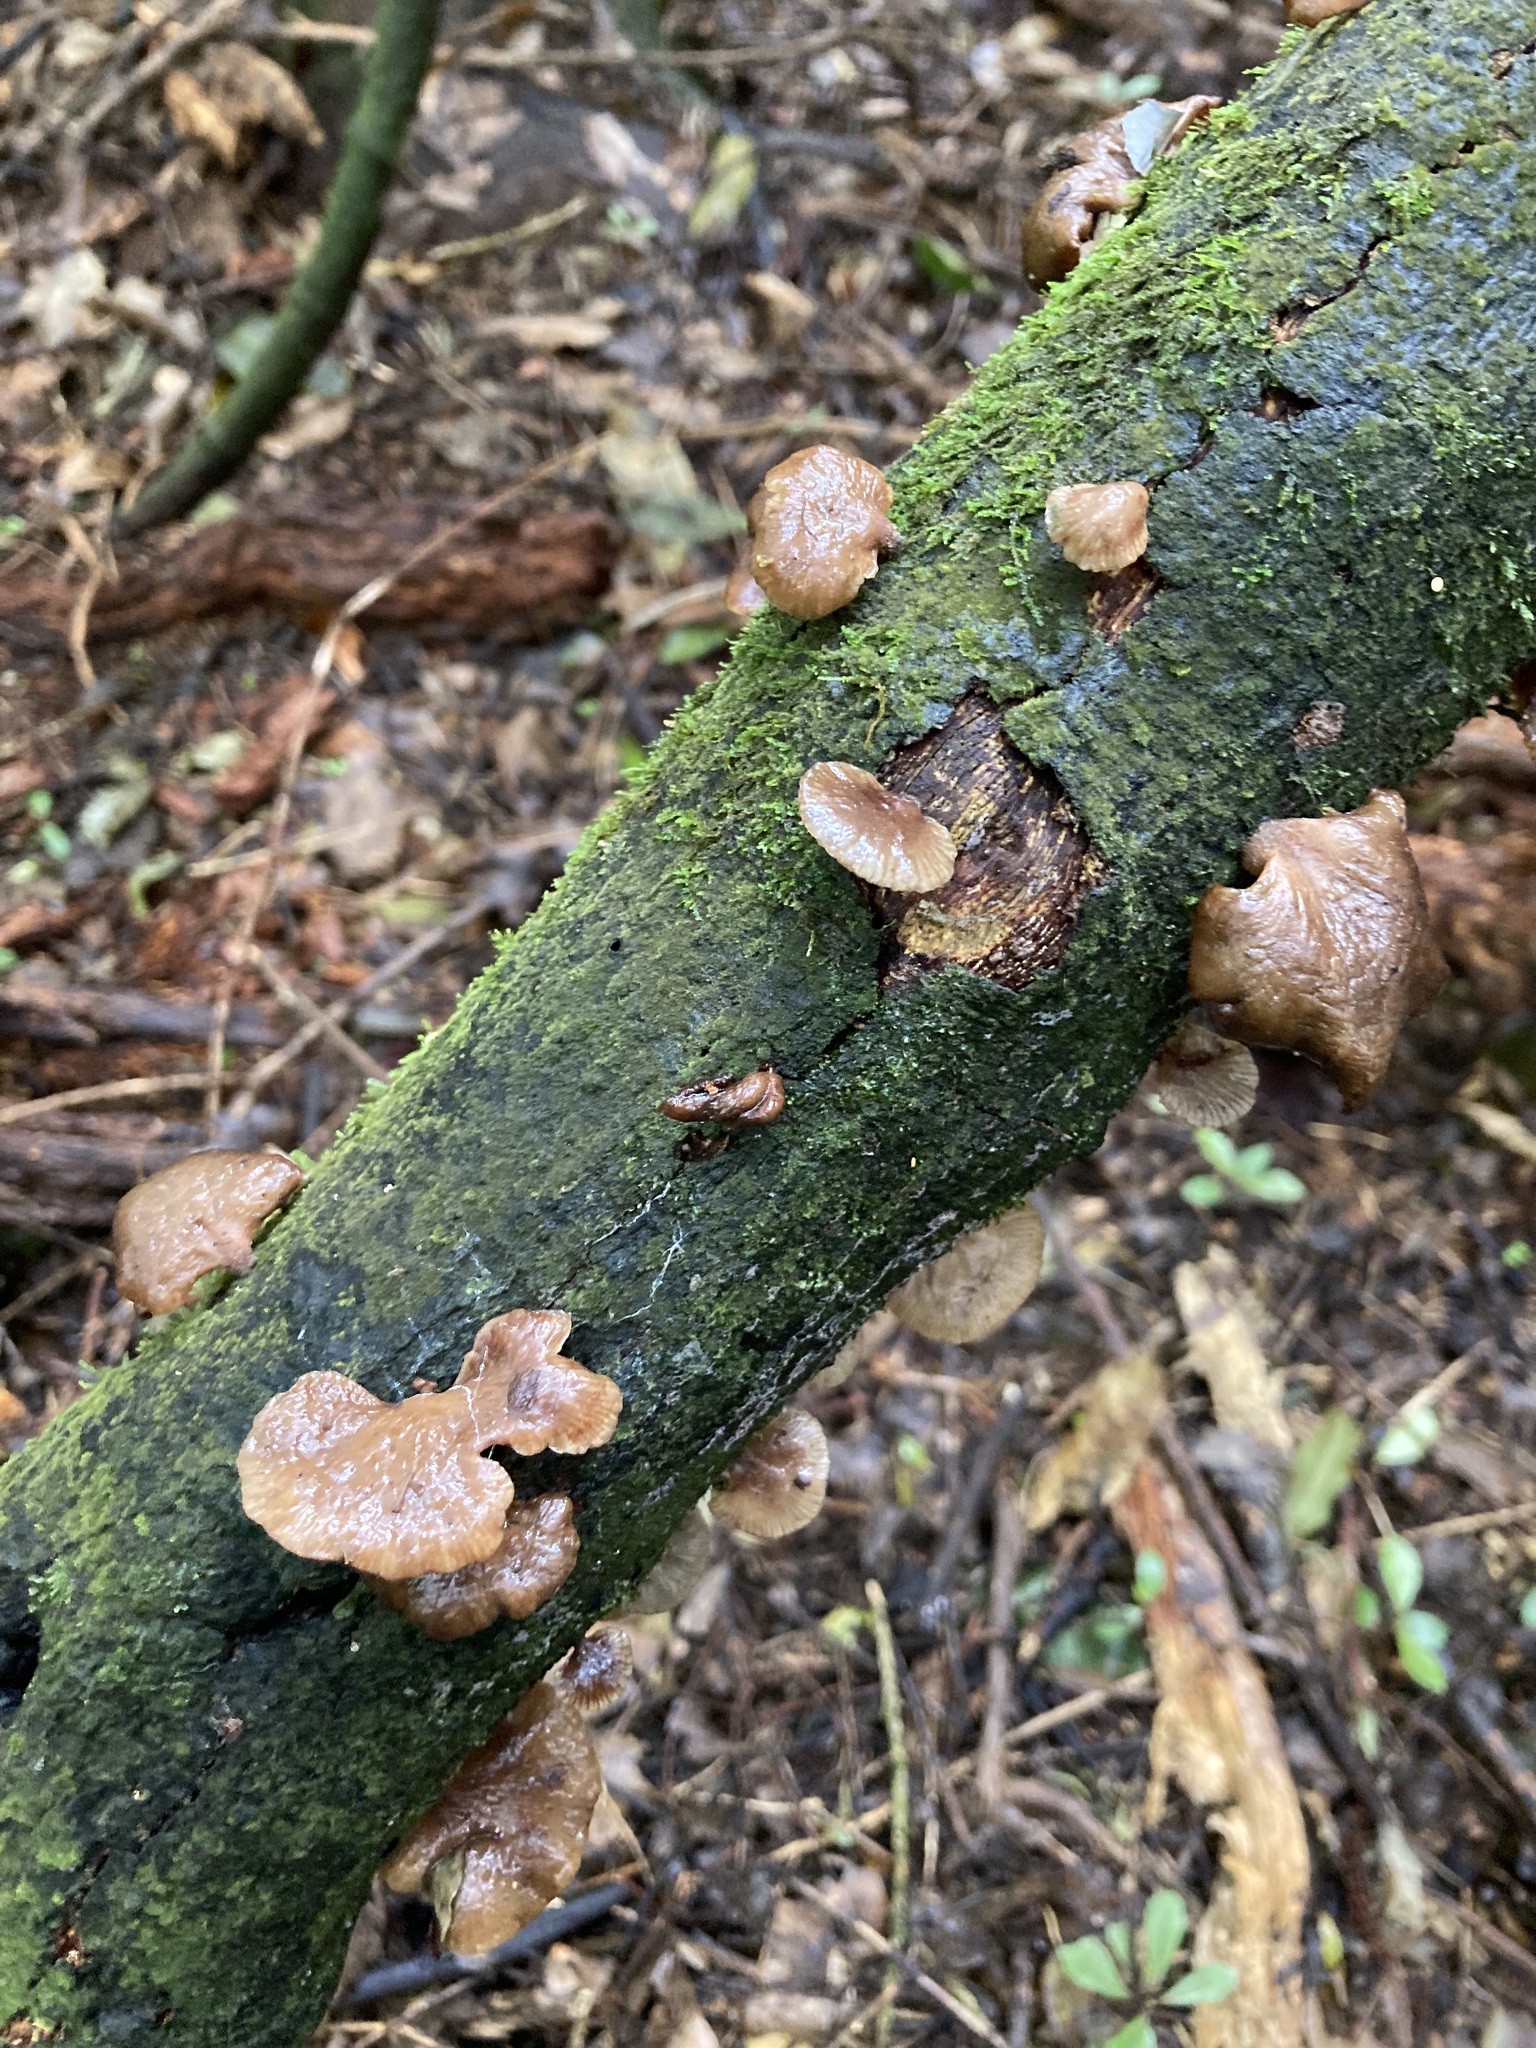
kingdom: Fungi
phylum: Basidiomycota
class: Agaricomycetes
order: Agaricales
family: Mycenaceae
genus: Panellus
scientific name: Panellus longinquus
